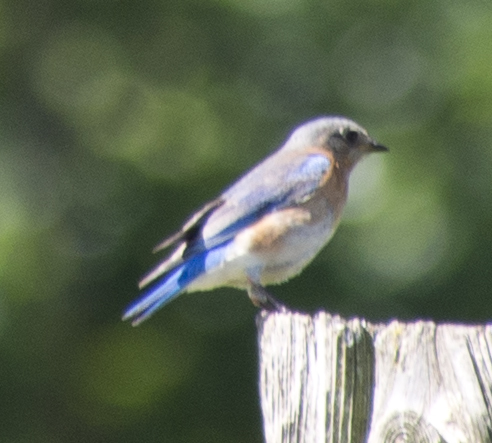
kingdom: Animalia
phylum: Chordata
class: Aves
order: Passeriformes
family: Turdidae
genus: Sialia
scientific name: Sialia sialis
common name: Eastern bluebird
